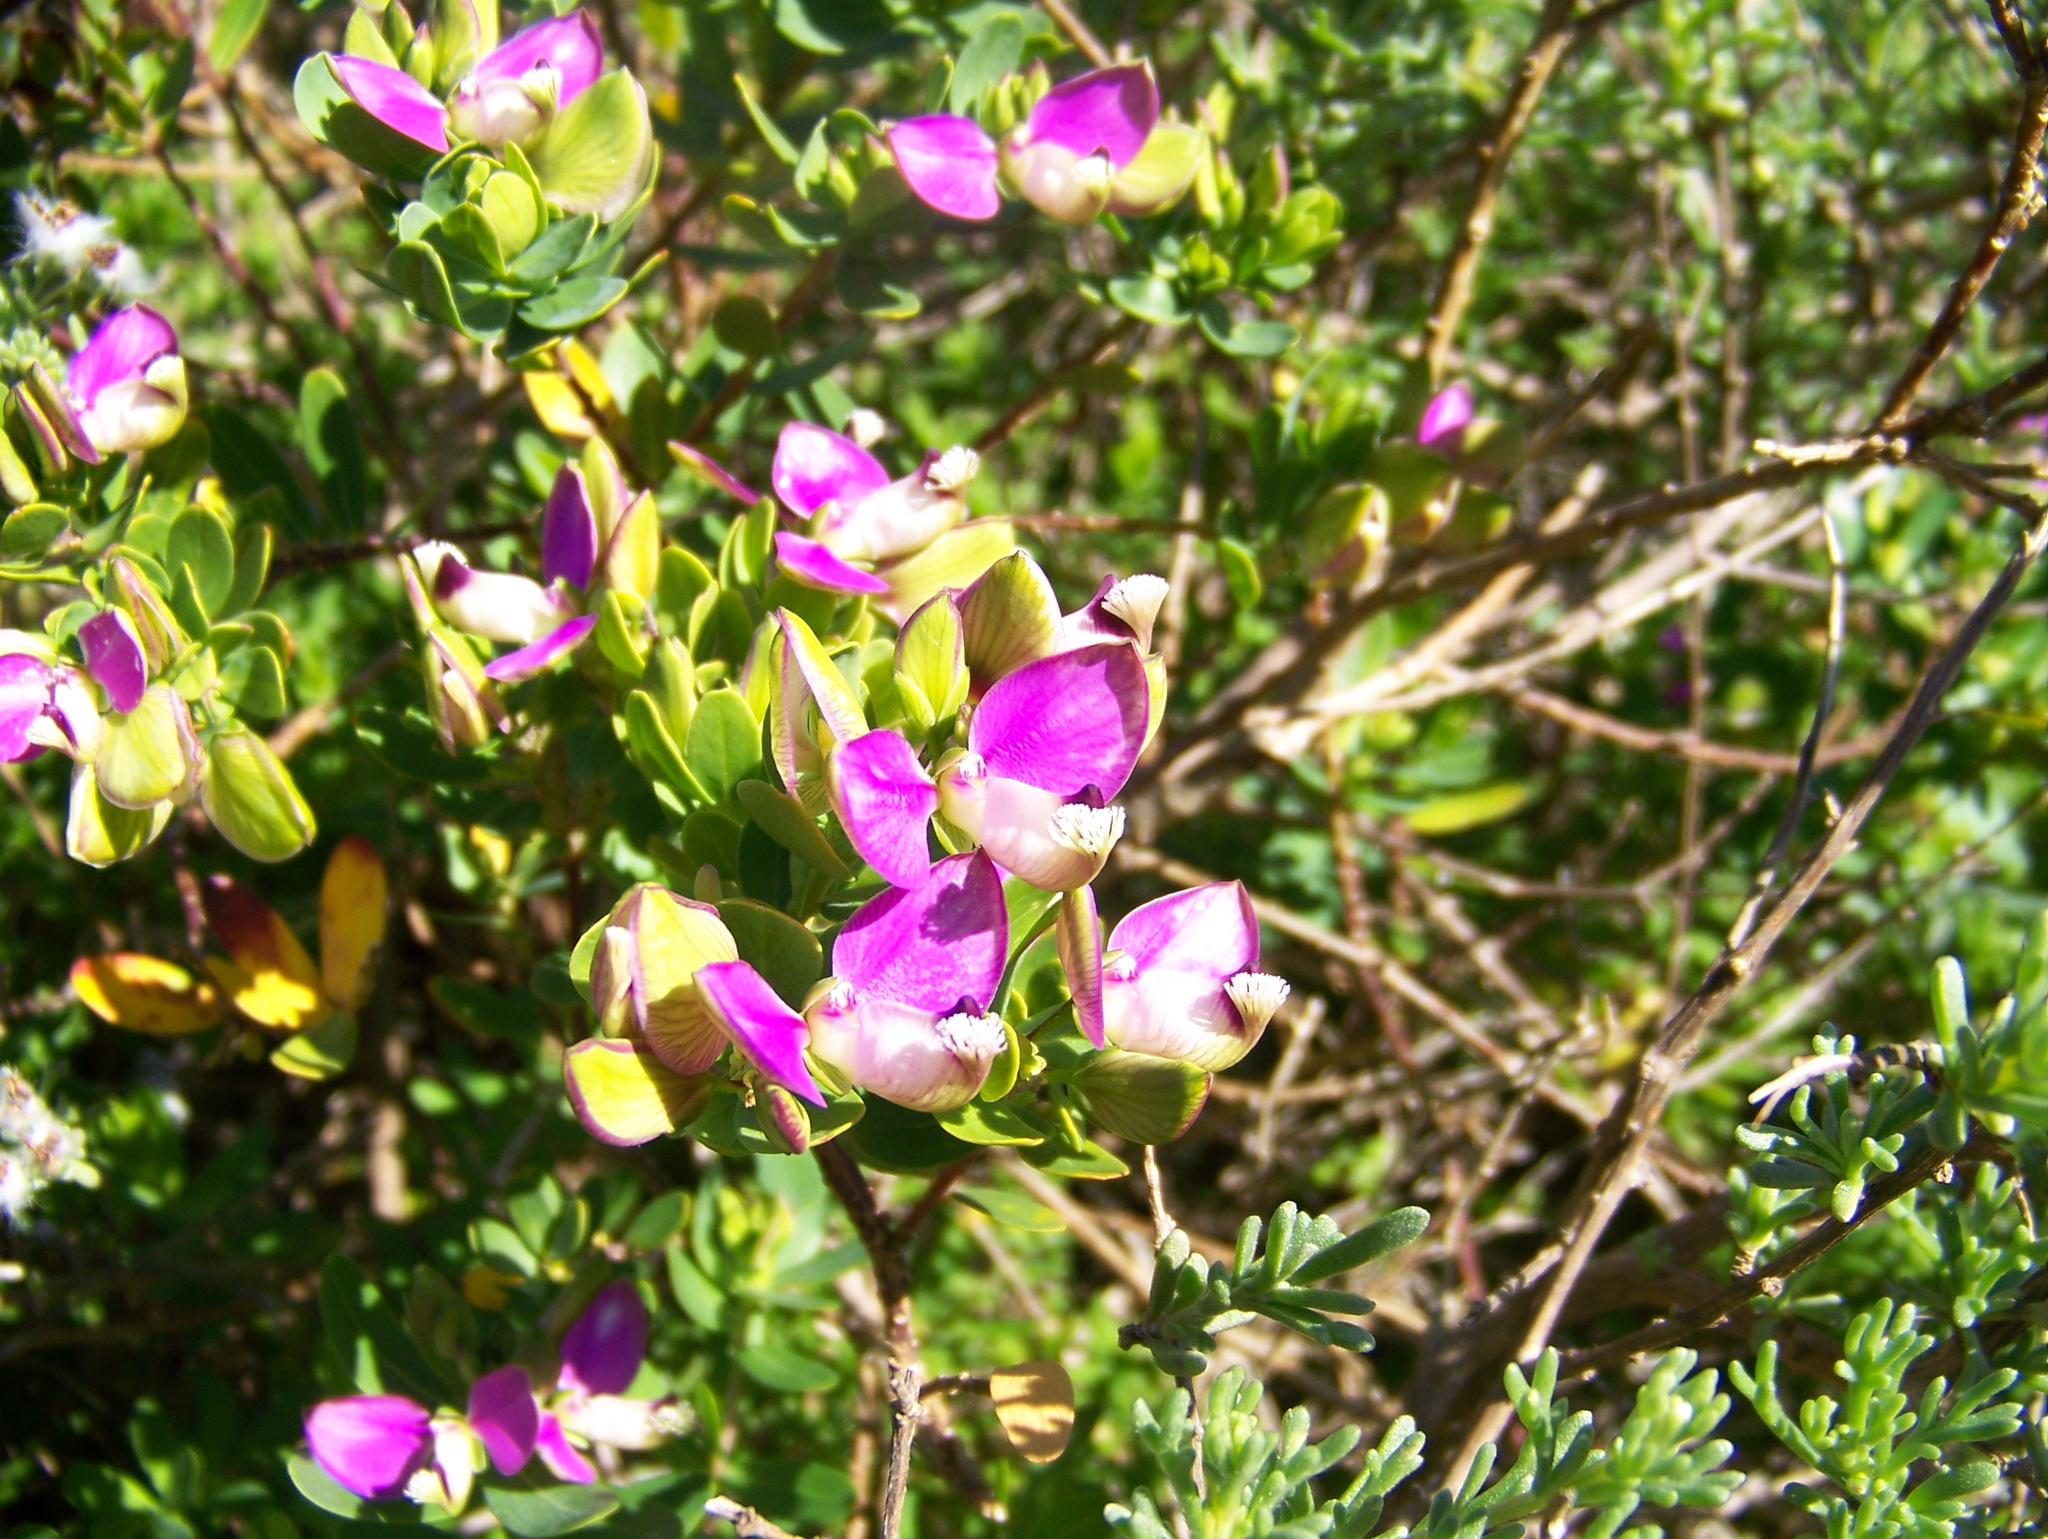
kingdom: Plantae
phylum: Tracheophyta
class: Magnoliopsida
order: Fabales
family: Polygalaceae
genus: Polygala
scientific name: Polygala myrtifolia
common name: Myrtle-leaf milkwort
